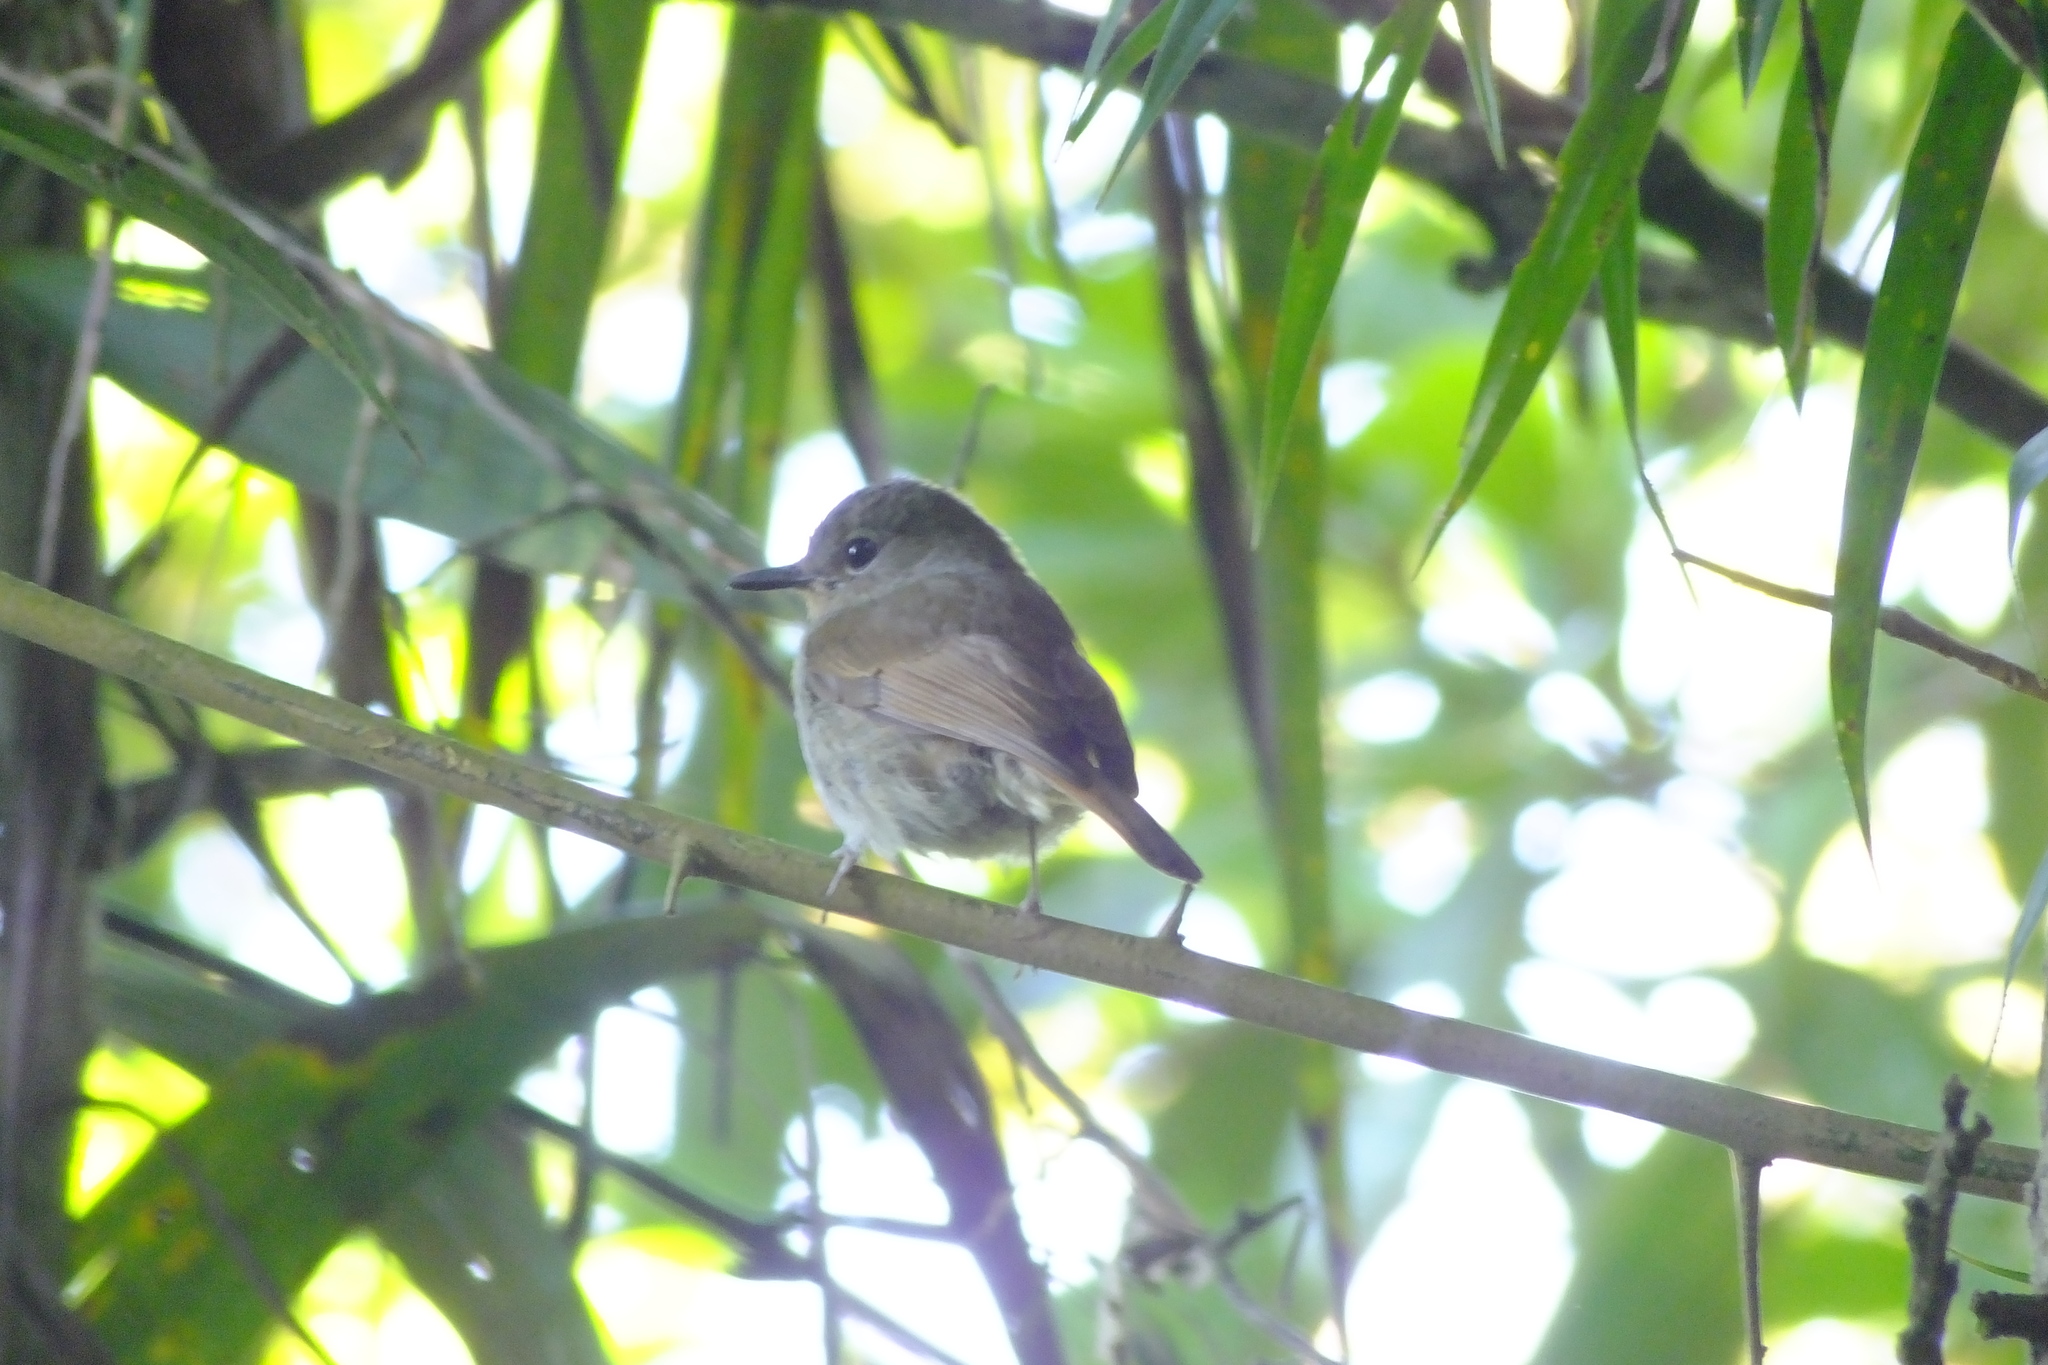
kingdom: Animalia
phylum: Chordata
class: Aves
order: Passeriformes
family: Muscicapidae
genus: Cyornis
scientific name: Cyornis unicolor
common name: Pale blue flycatcher
